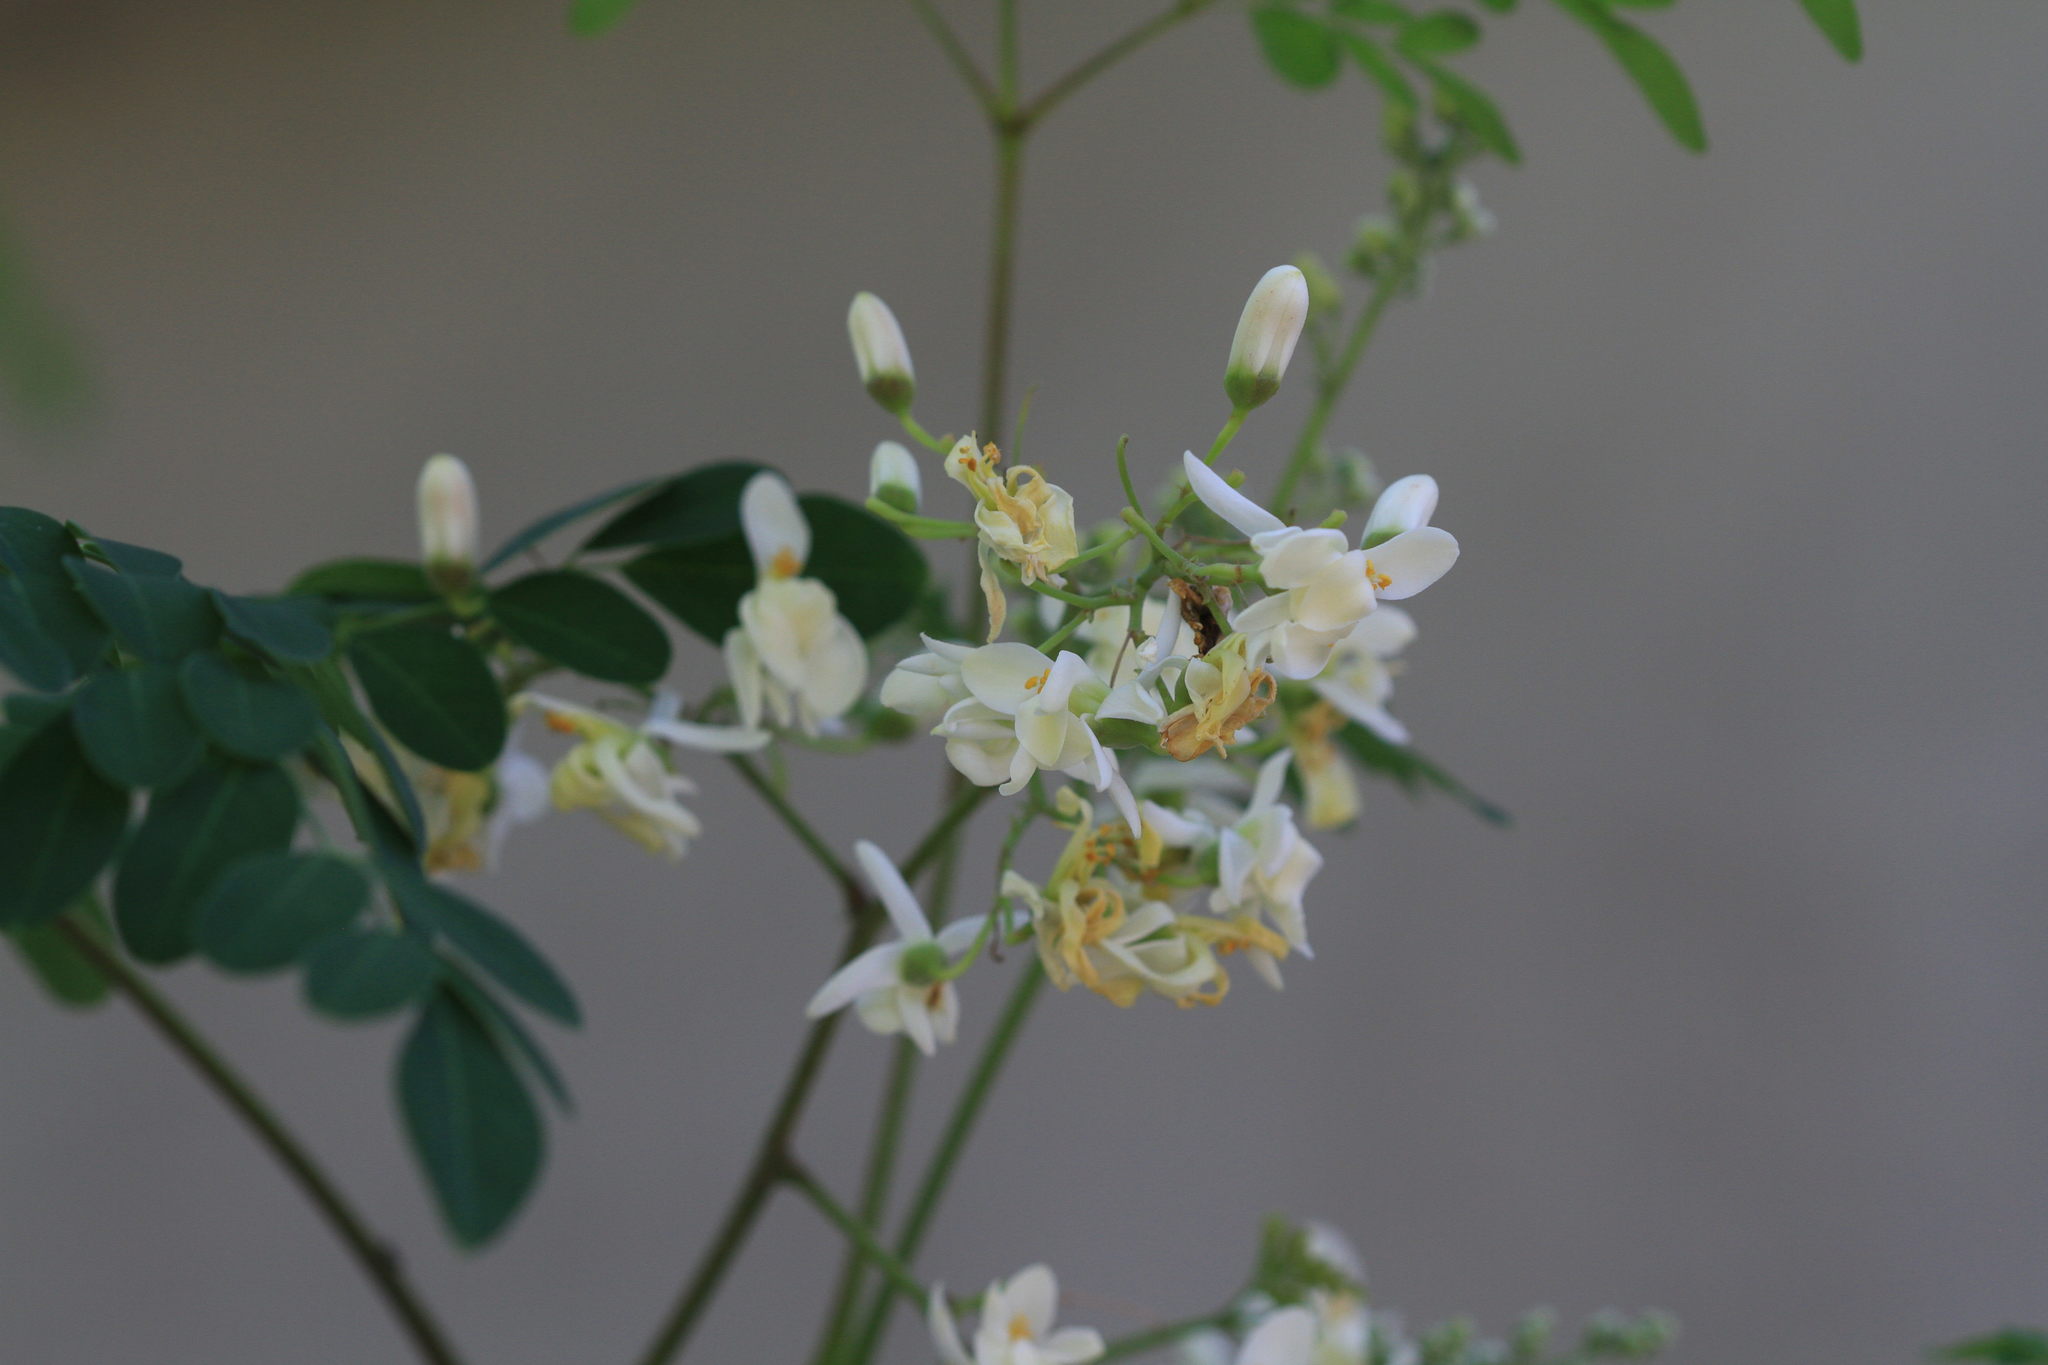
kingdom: Plantae
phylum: Tracheophyta
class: Magnoliopsida
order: Brassicales
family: Moringaceae
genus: Moringa
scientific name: Moringa oleifera
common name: Horseradish-tree
